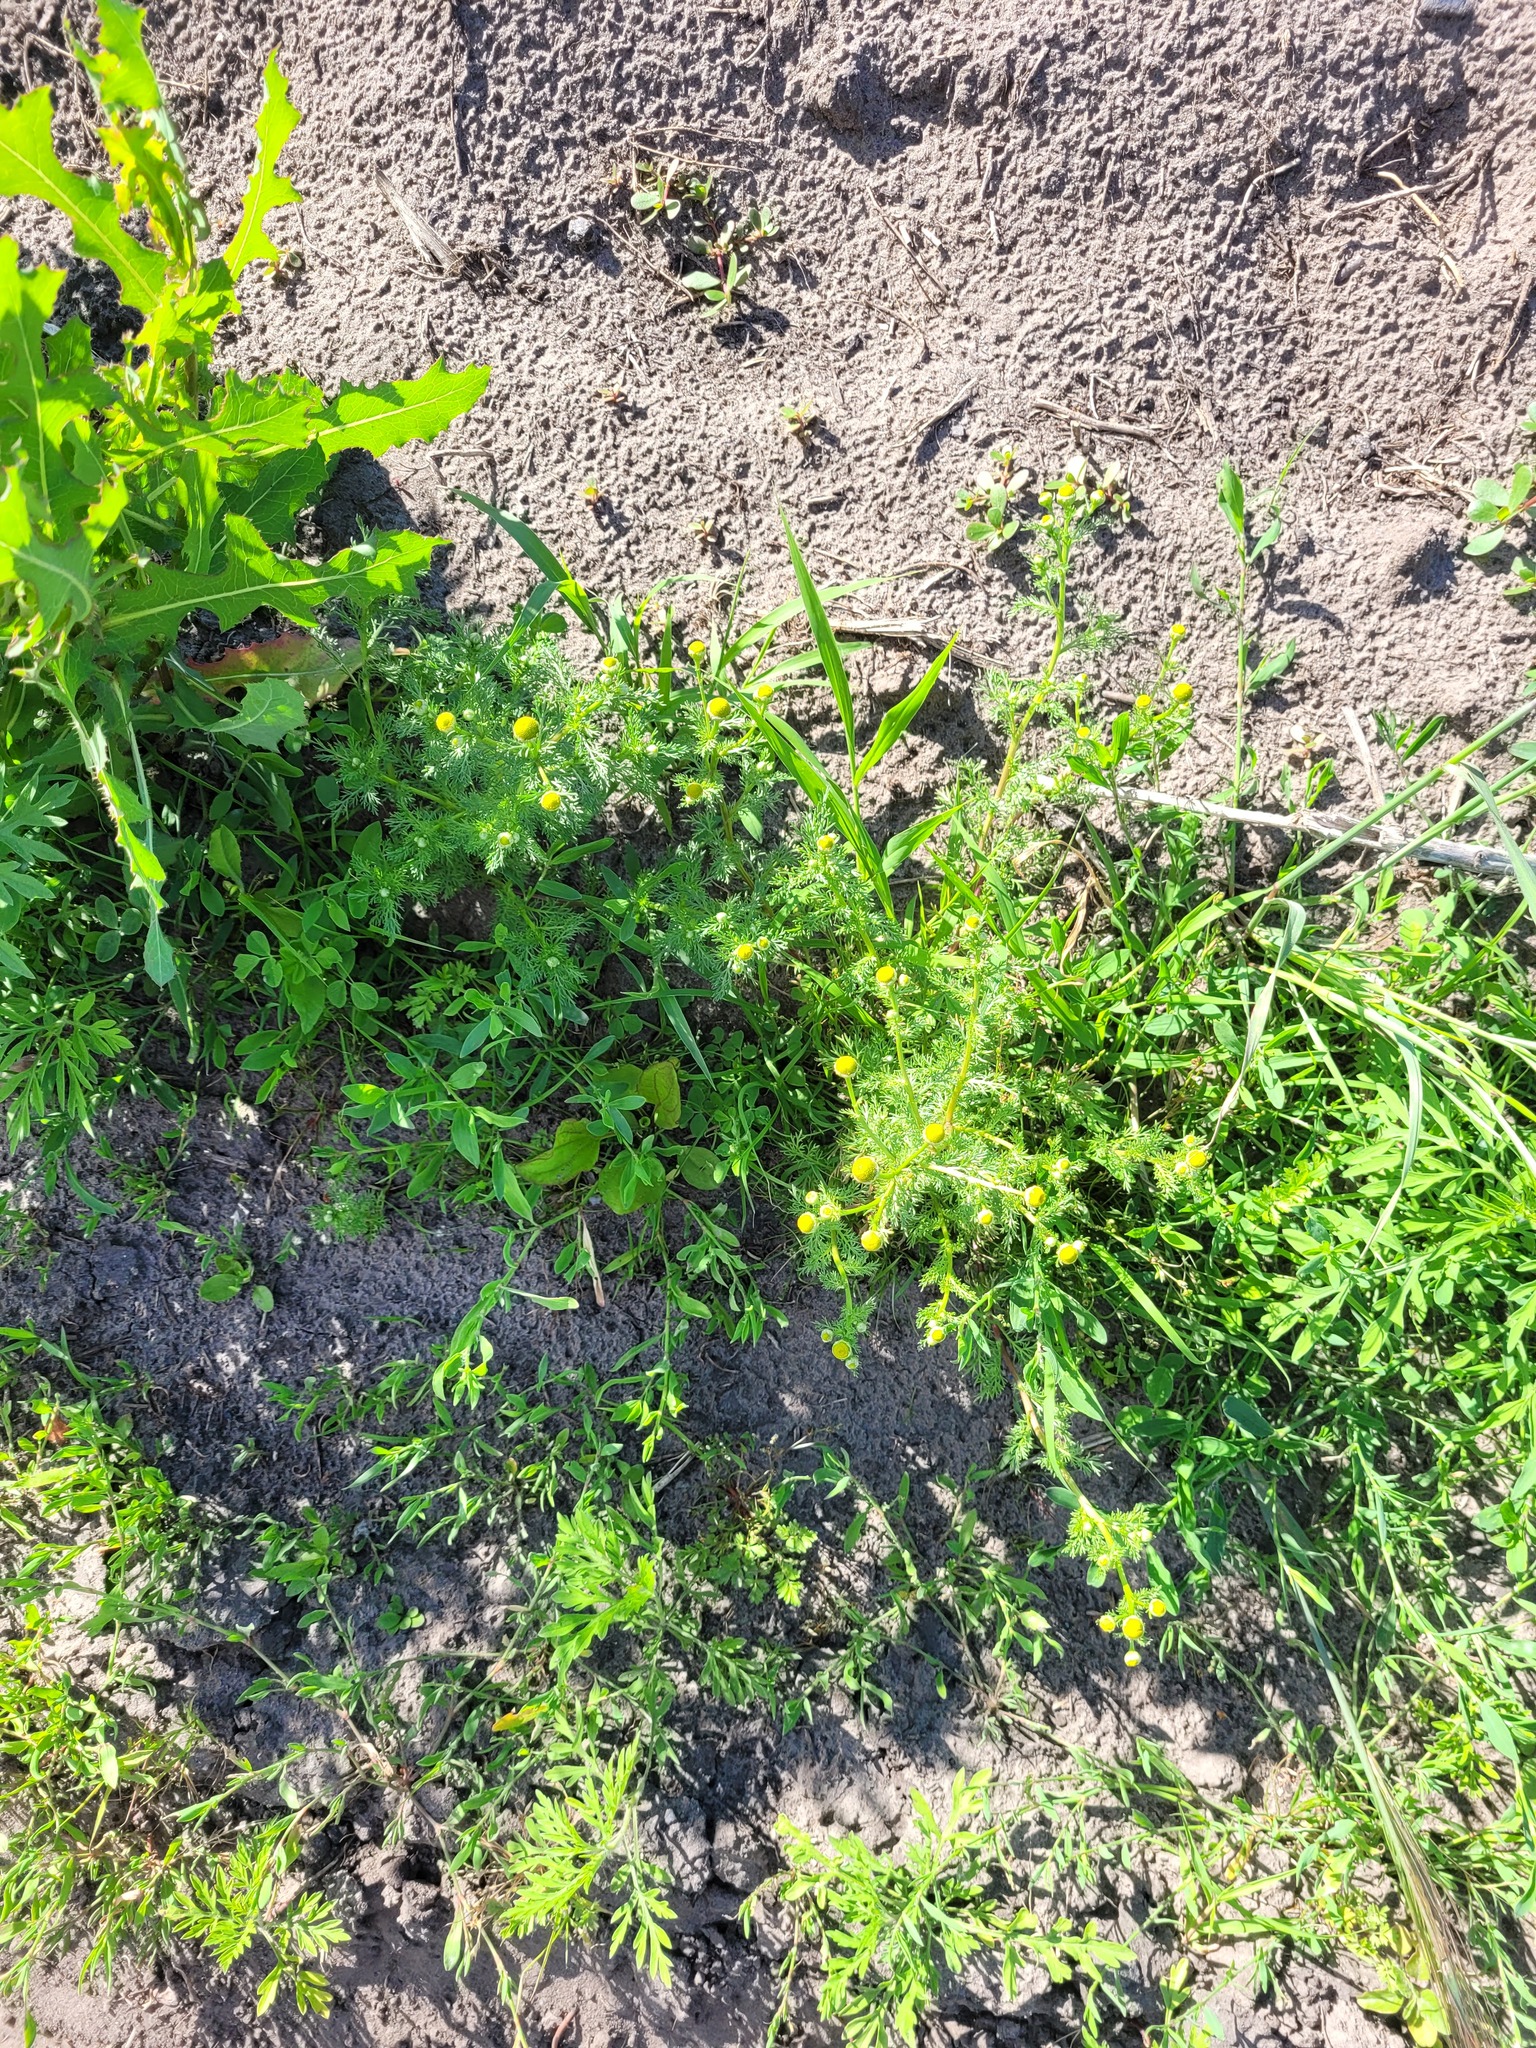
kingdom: Plantae
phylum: Tracheophyta
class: Magnoliopsida
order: Asterales
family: Asteraceae
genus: Matricaria
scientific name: Matricaria discoidea
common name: Disc mayweed
